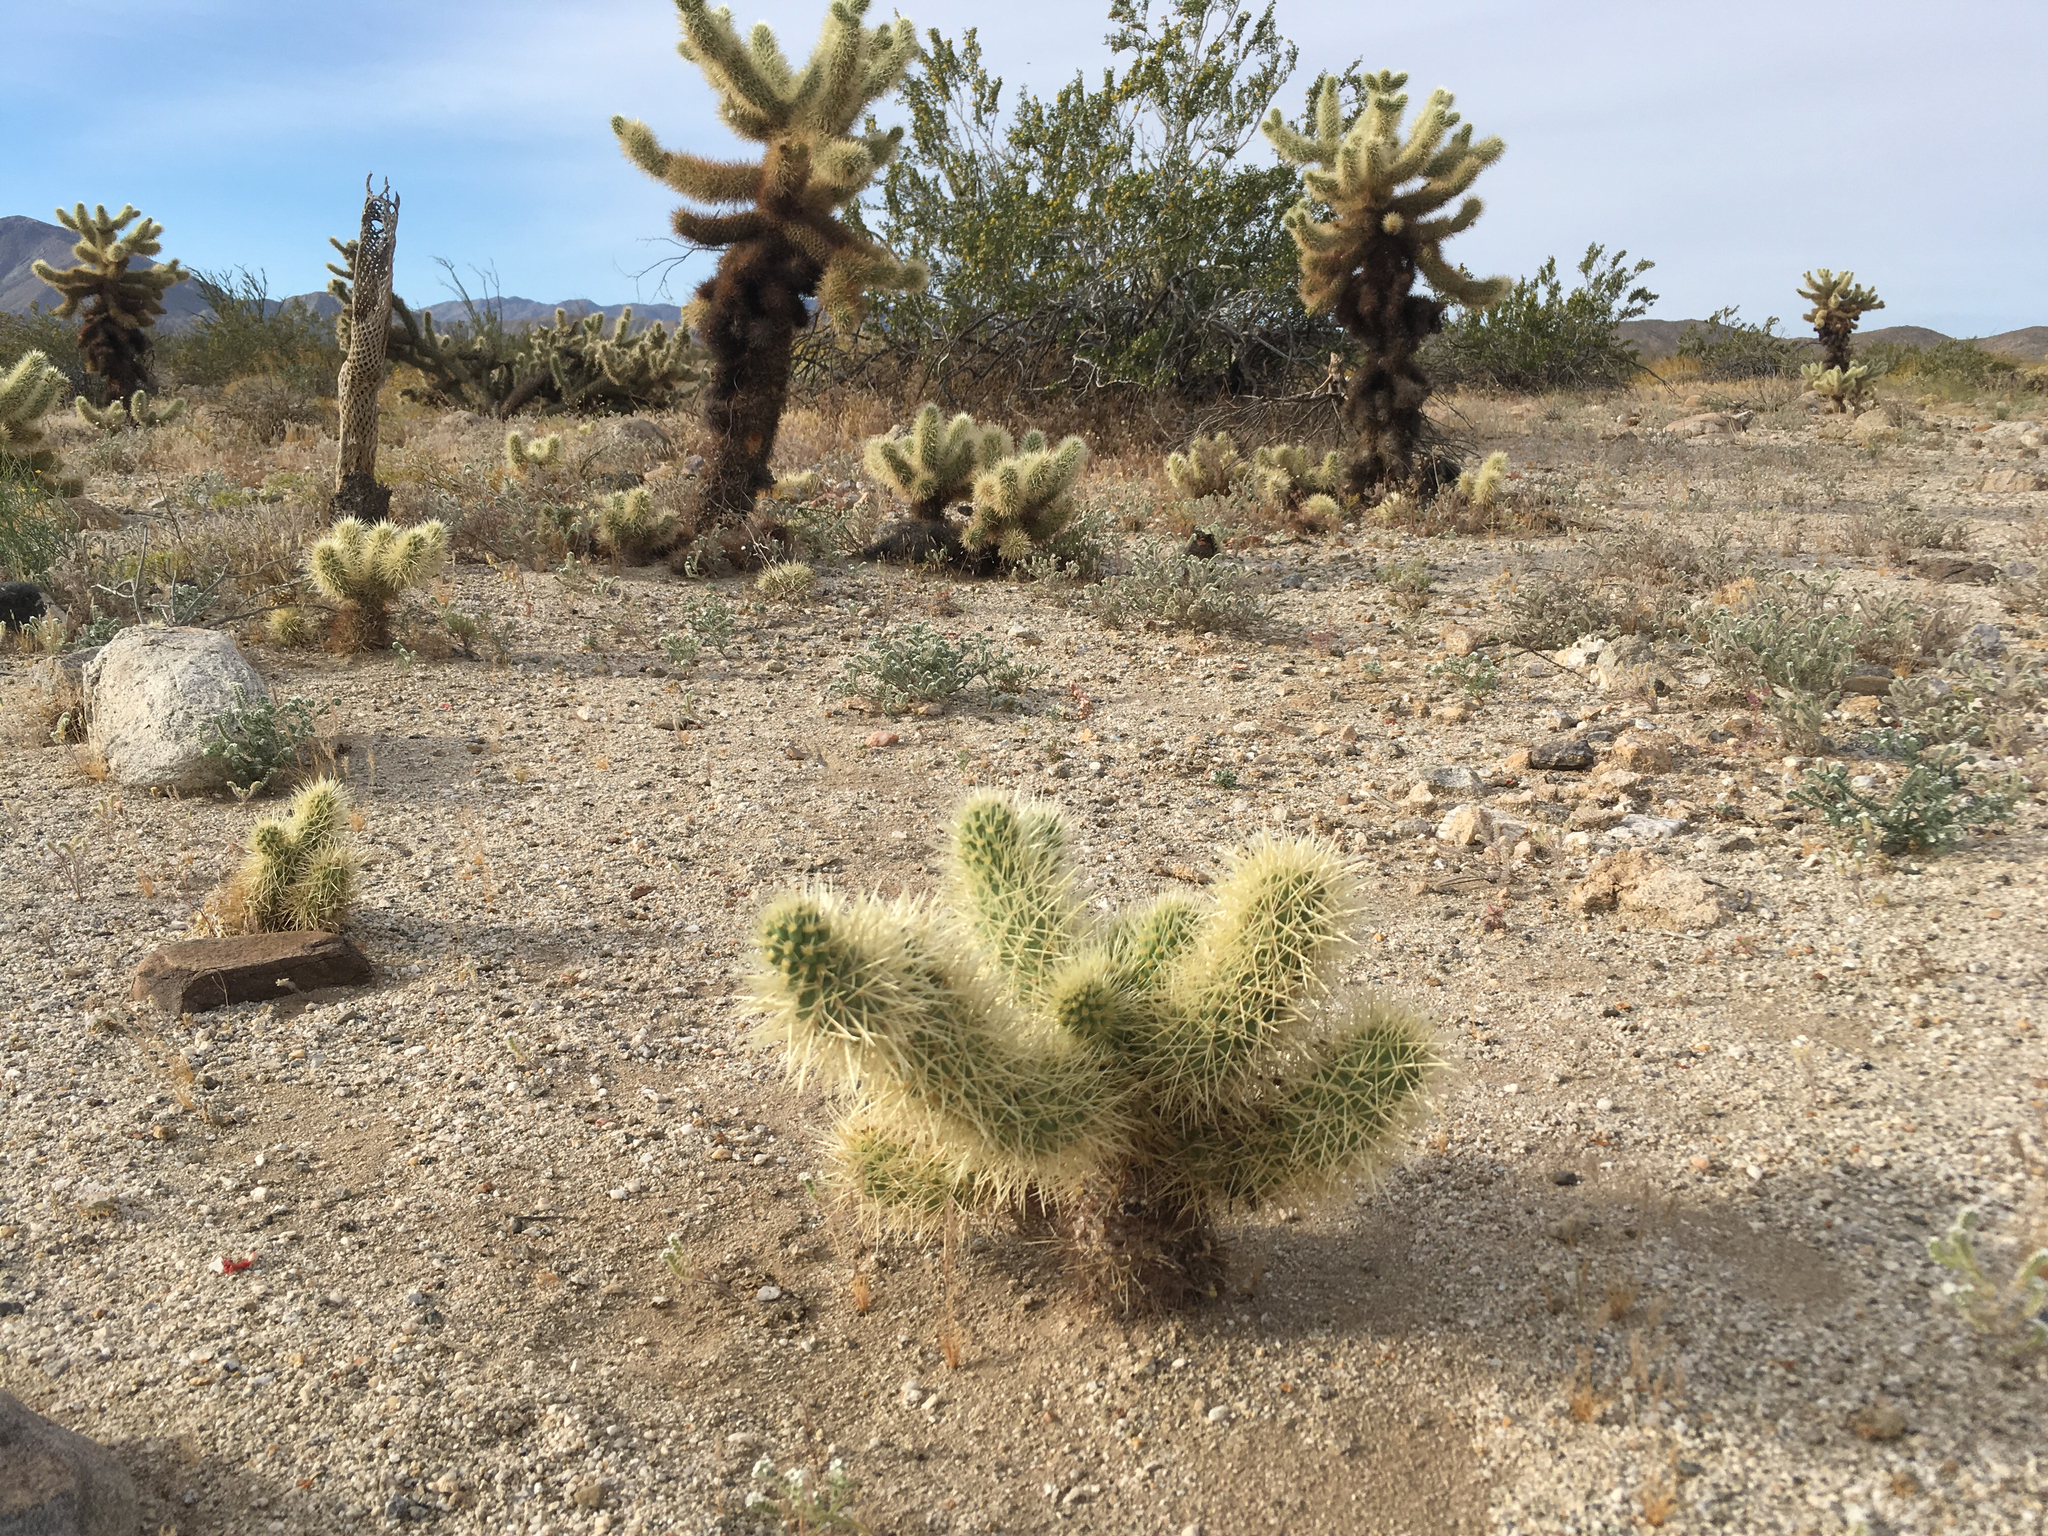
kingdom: Plantae
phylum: Tracheophyta
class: Magnoliopsida
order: Caryophyllales
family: Cactaceae
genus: Cylindropuntia
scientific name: Cylindropuntia fosbergii
